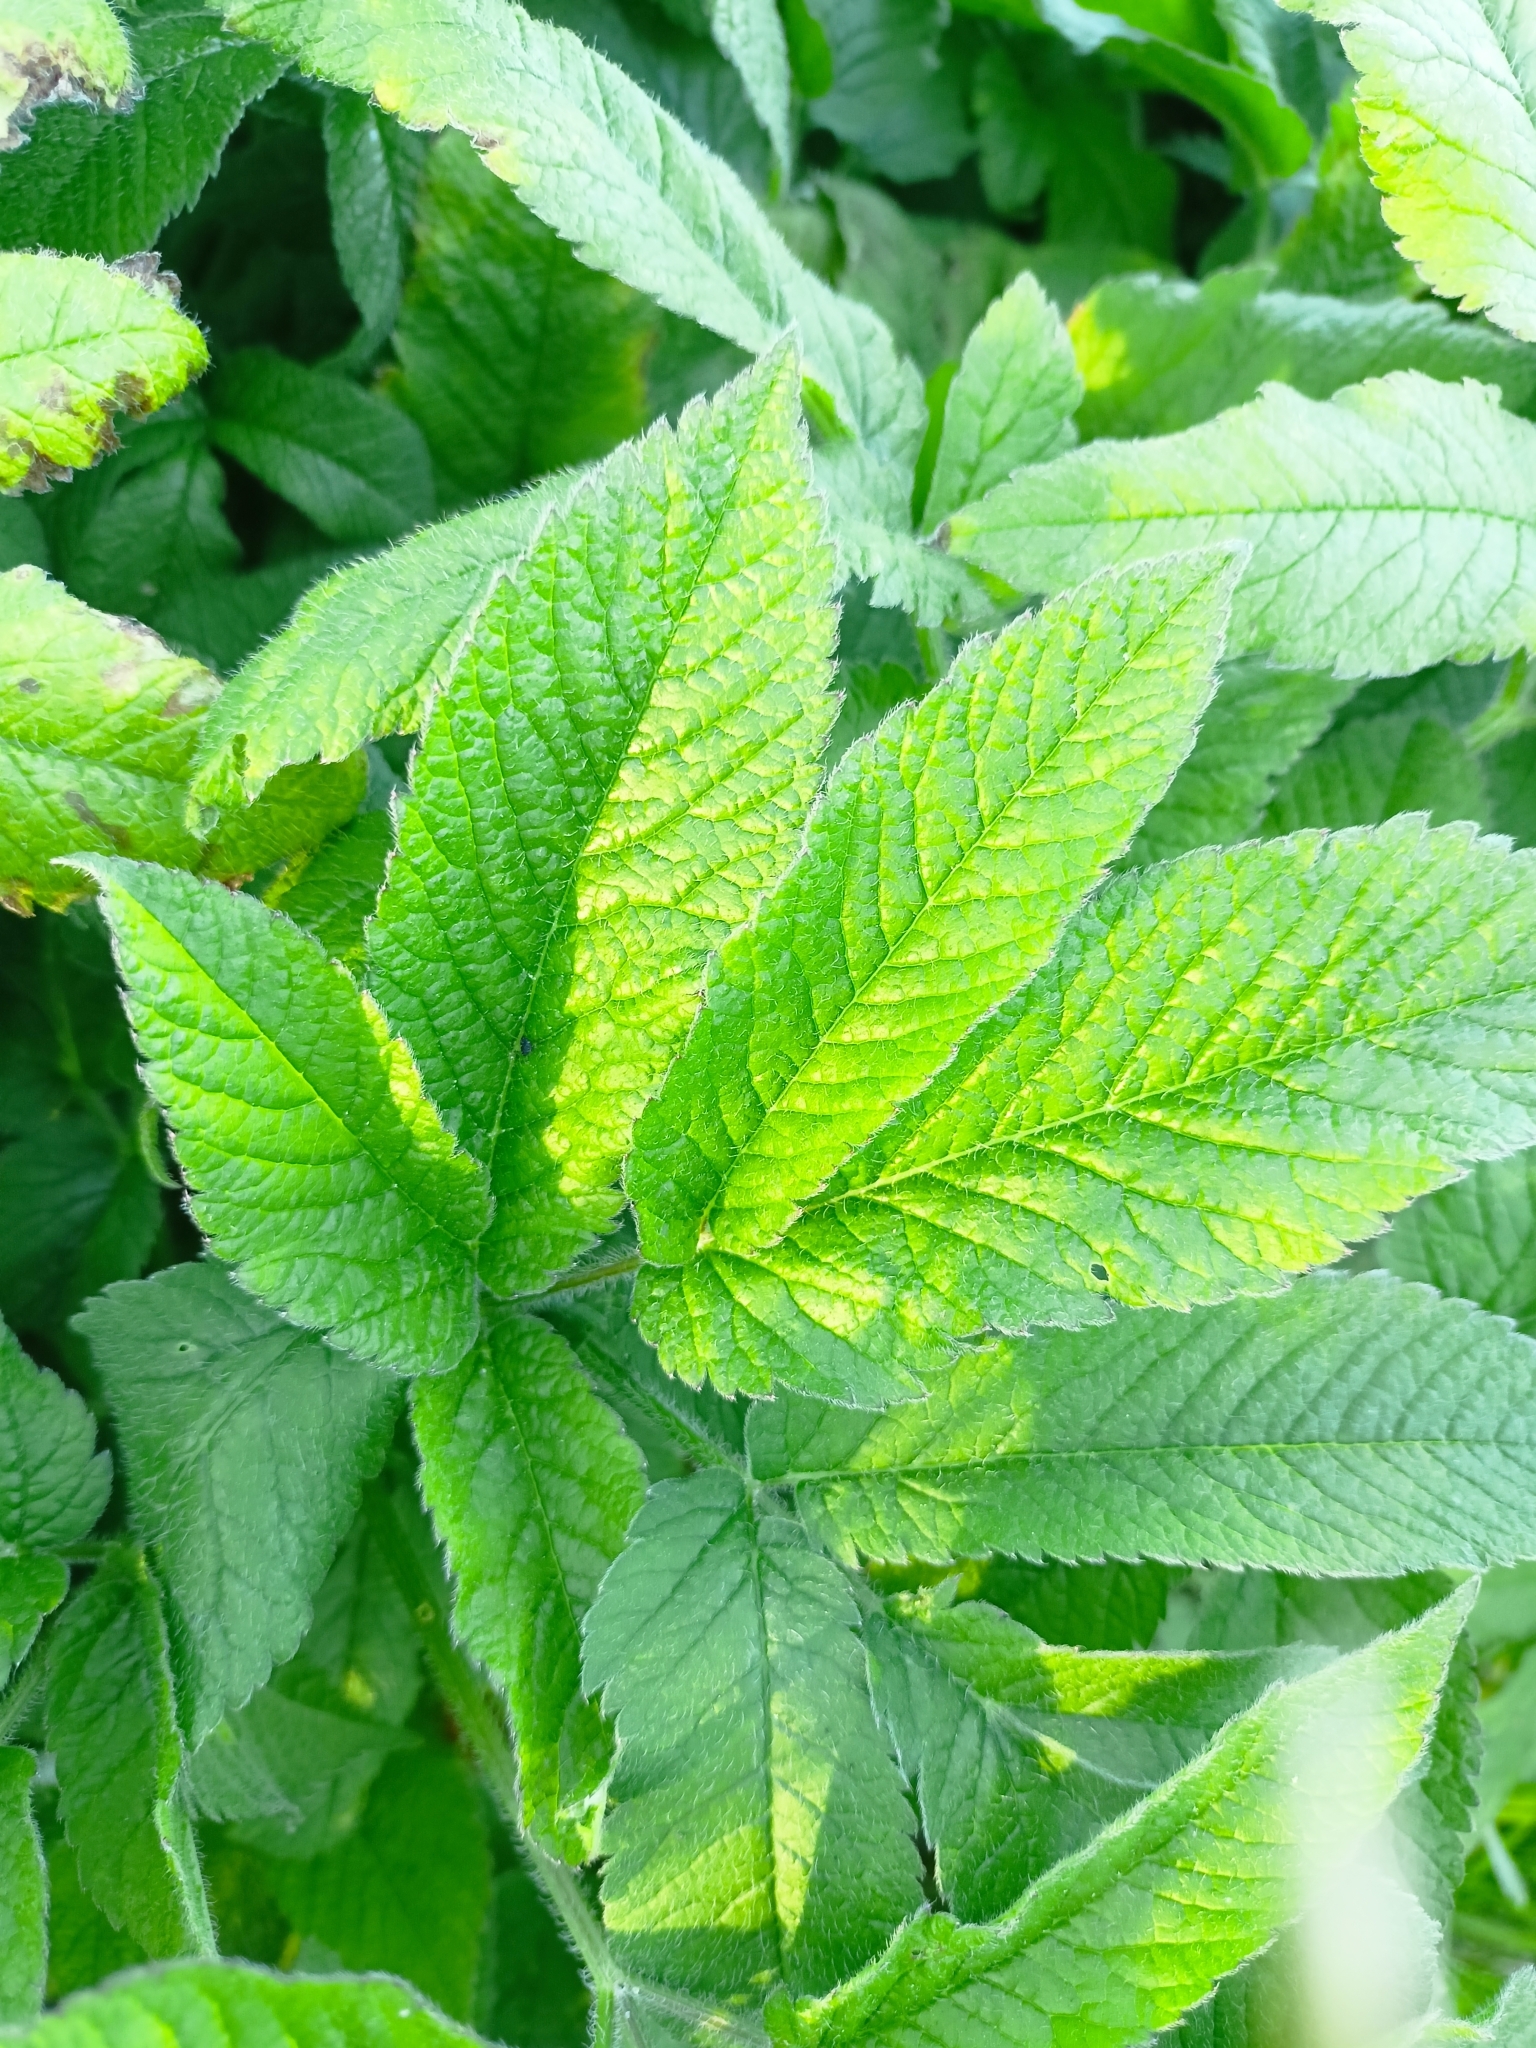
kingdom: Plantae
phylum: Tracheophyta
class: Magnoliopsida
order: Apiales
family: Apiaceae
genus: Chaerophyllum
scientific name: Chaerophyllum aromaticum
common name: Broadleaf chervil
